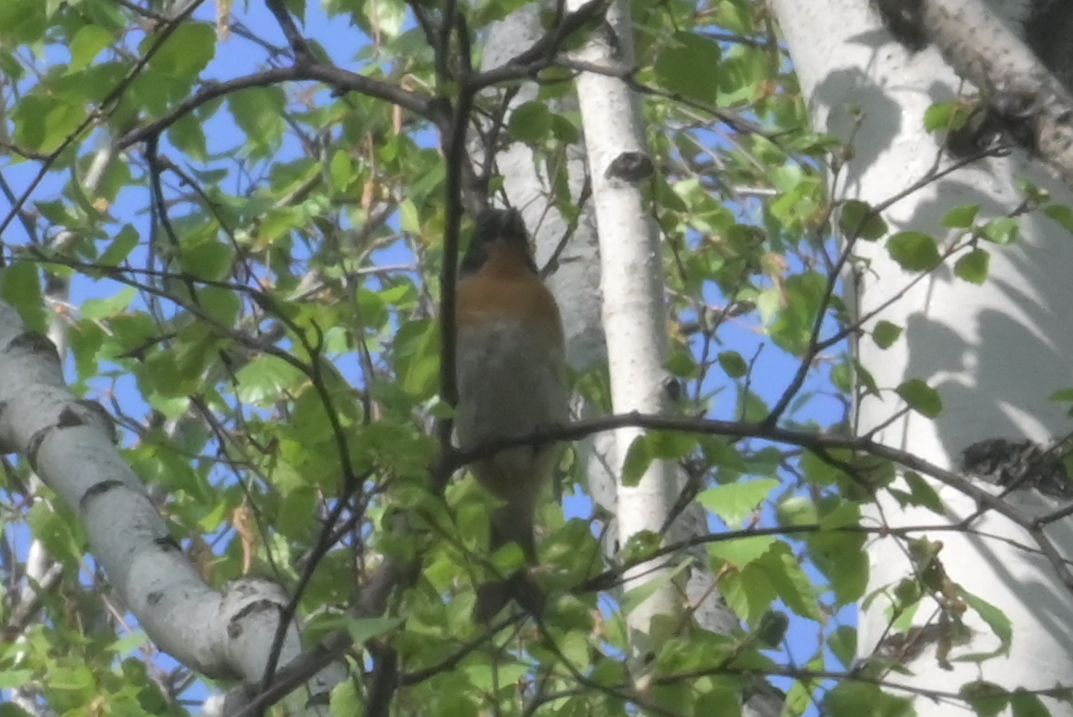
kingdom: Animalia
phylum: Chordata
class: Aves
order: Passeriformes
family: Fringillidae
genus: Fringilla
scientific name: Fringilla montifringilla
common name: Brambling
